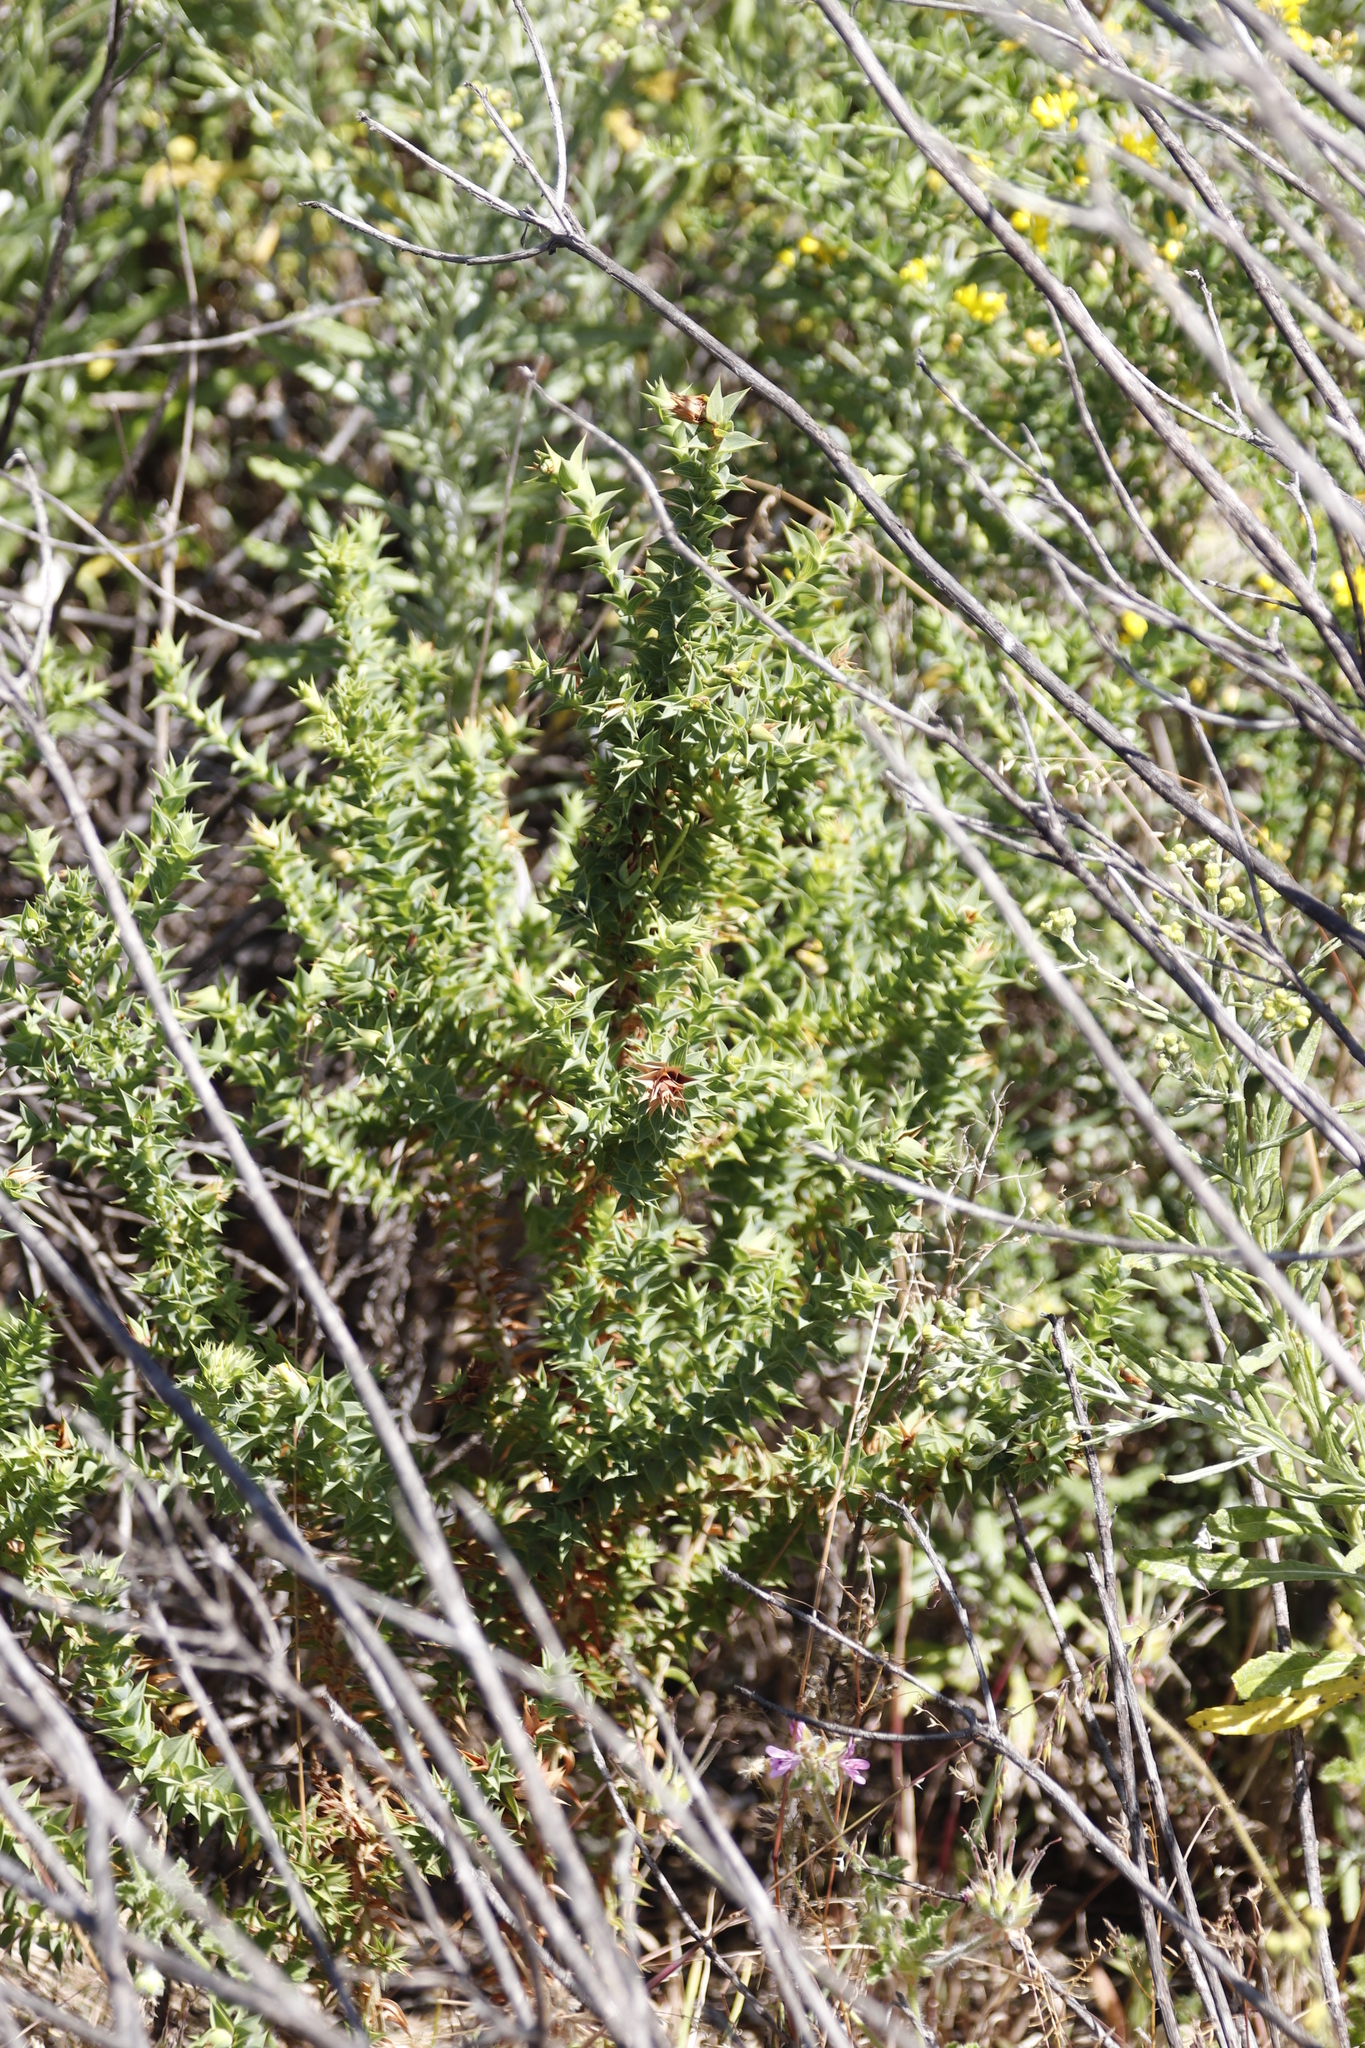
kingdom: Plantae
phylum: Tracheophyta
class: Magnoliopsida
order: Fabales
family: Fabaceae
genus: Aspalathus
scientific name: Aspalathus cordata
